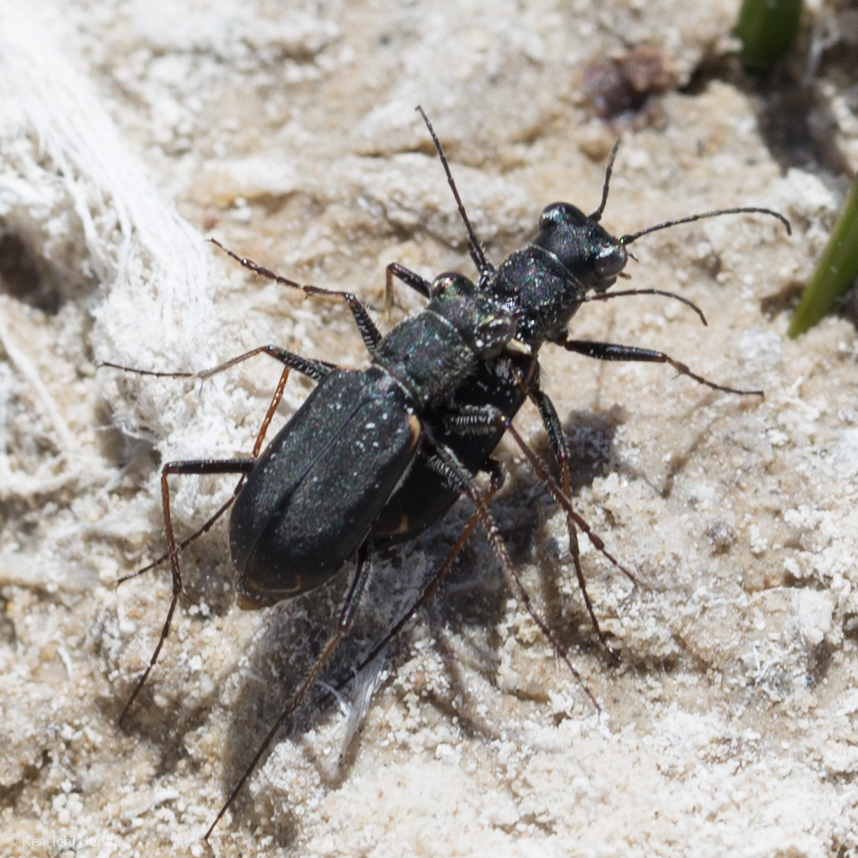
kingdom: Animalia
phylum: Arthropoda
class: Insecta
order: Coleoptera
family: Carabidae
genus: Cylindera
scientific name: Cylindera terricola
